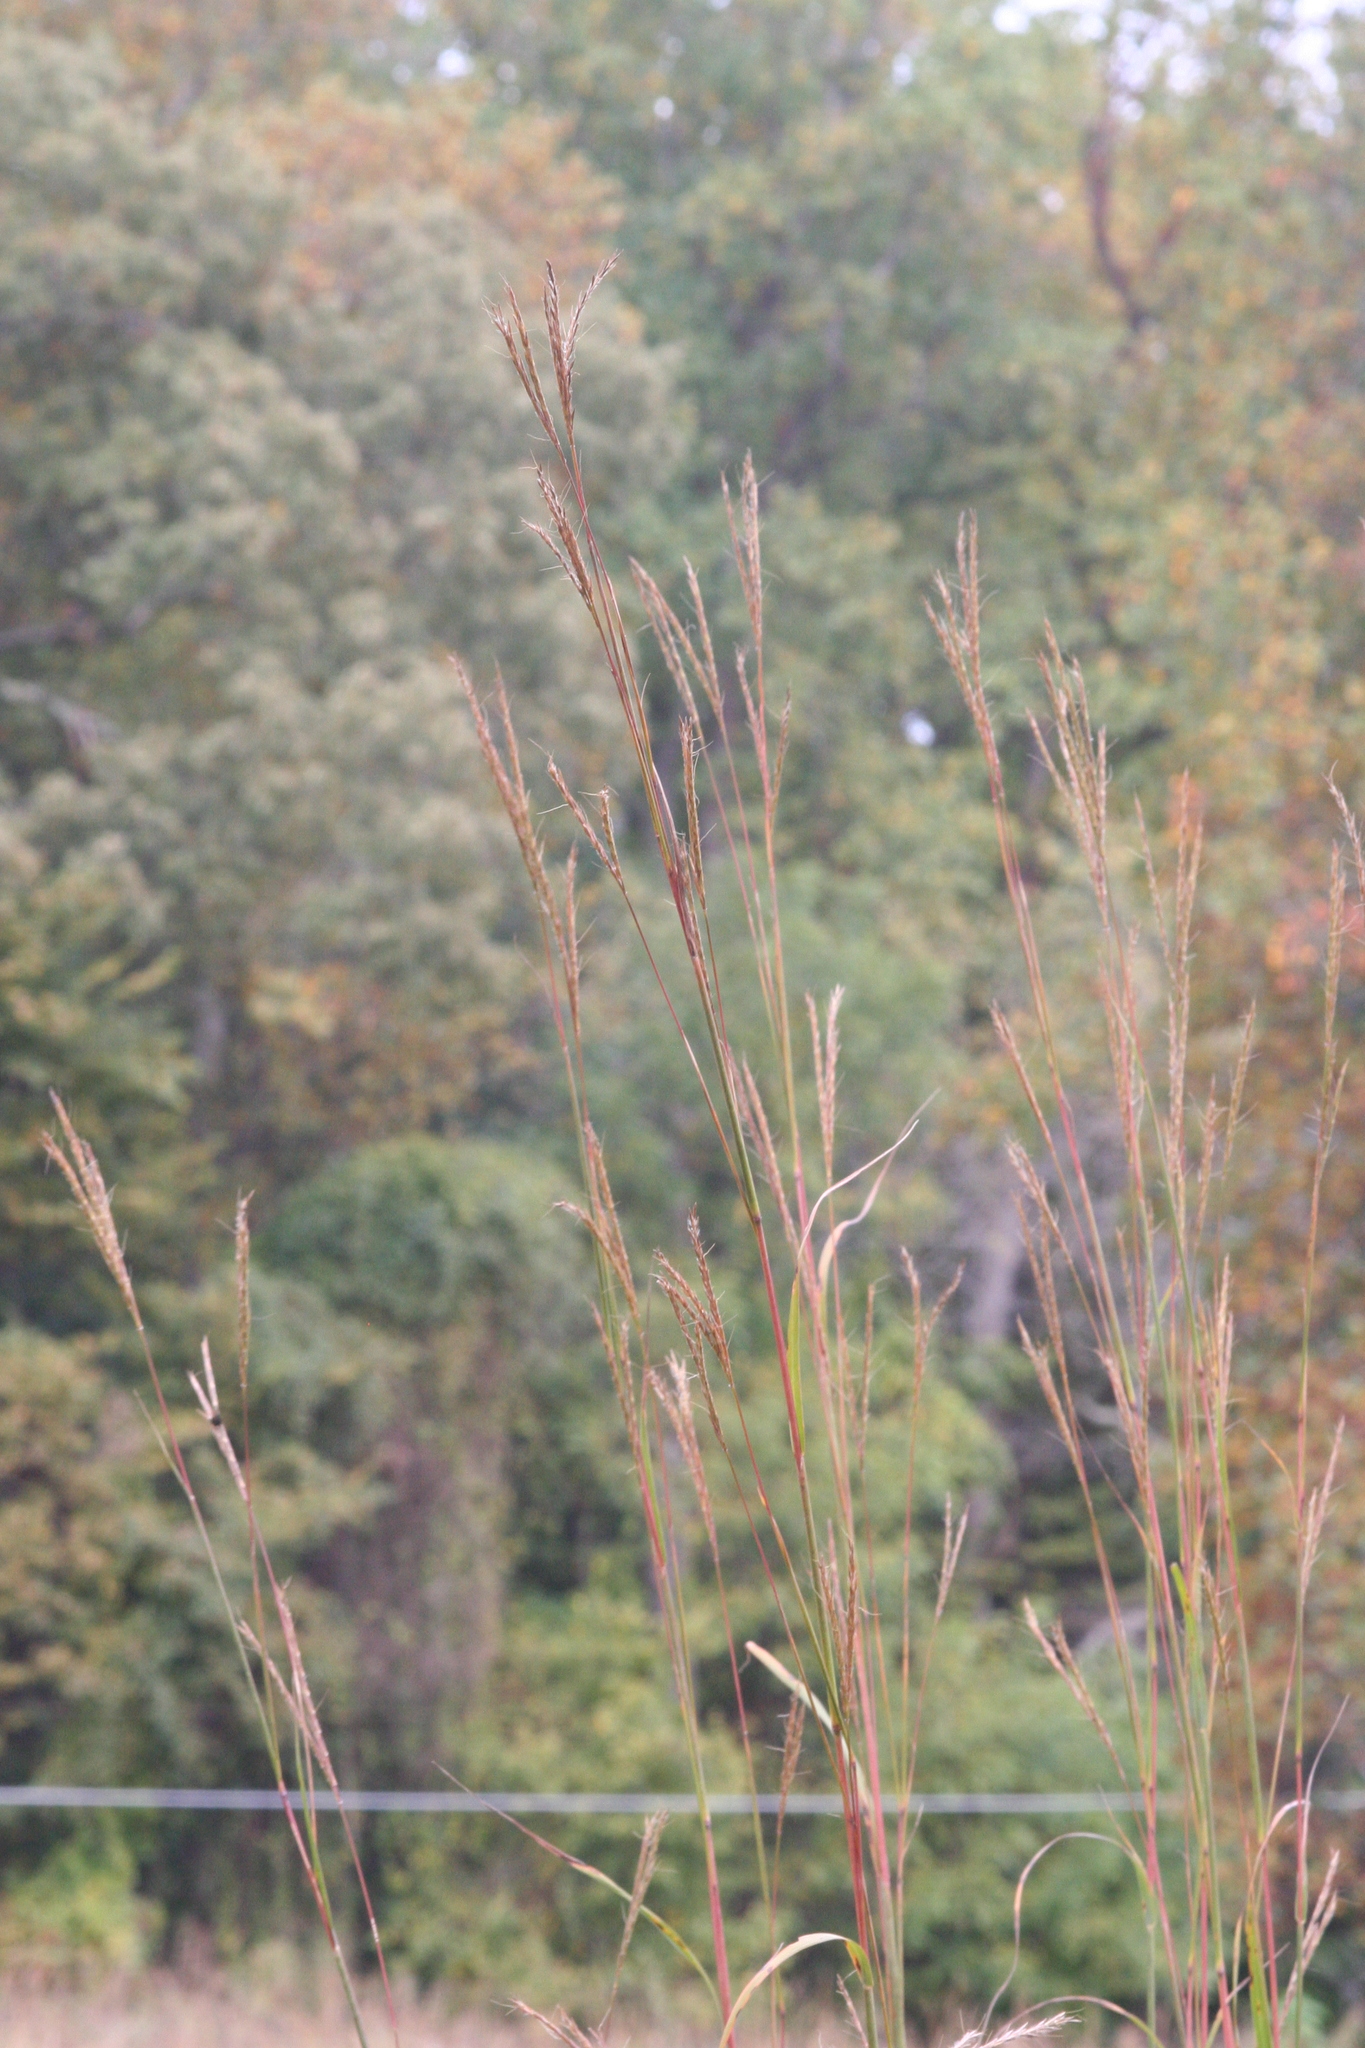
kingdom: Plantae
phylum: Tracheophyta
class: Liliopsida
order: Poales
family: Poaceae
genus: Andropogon
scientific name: Andropogon gerardi
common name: Big bluestem
